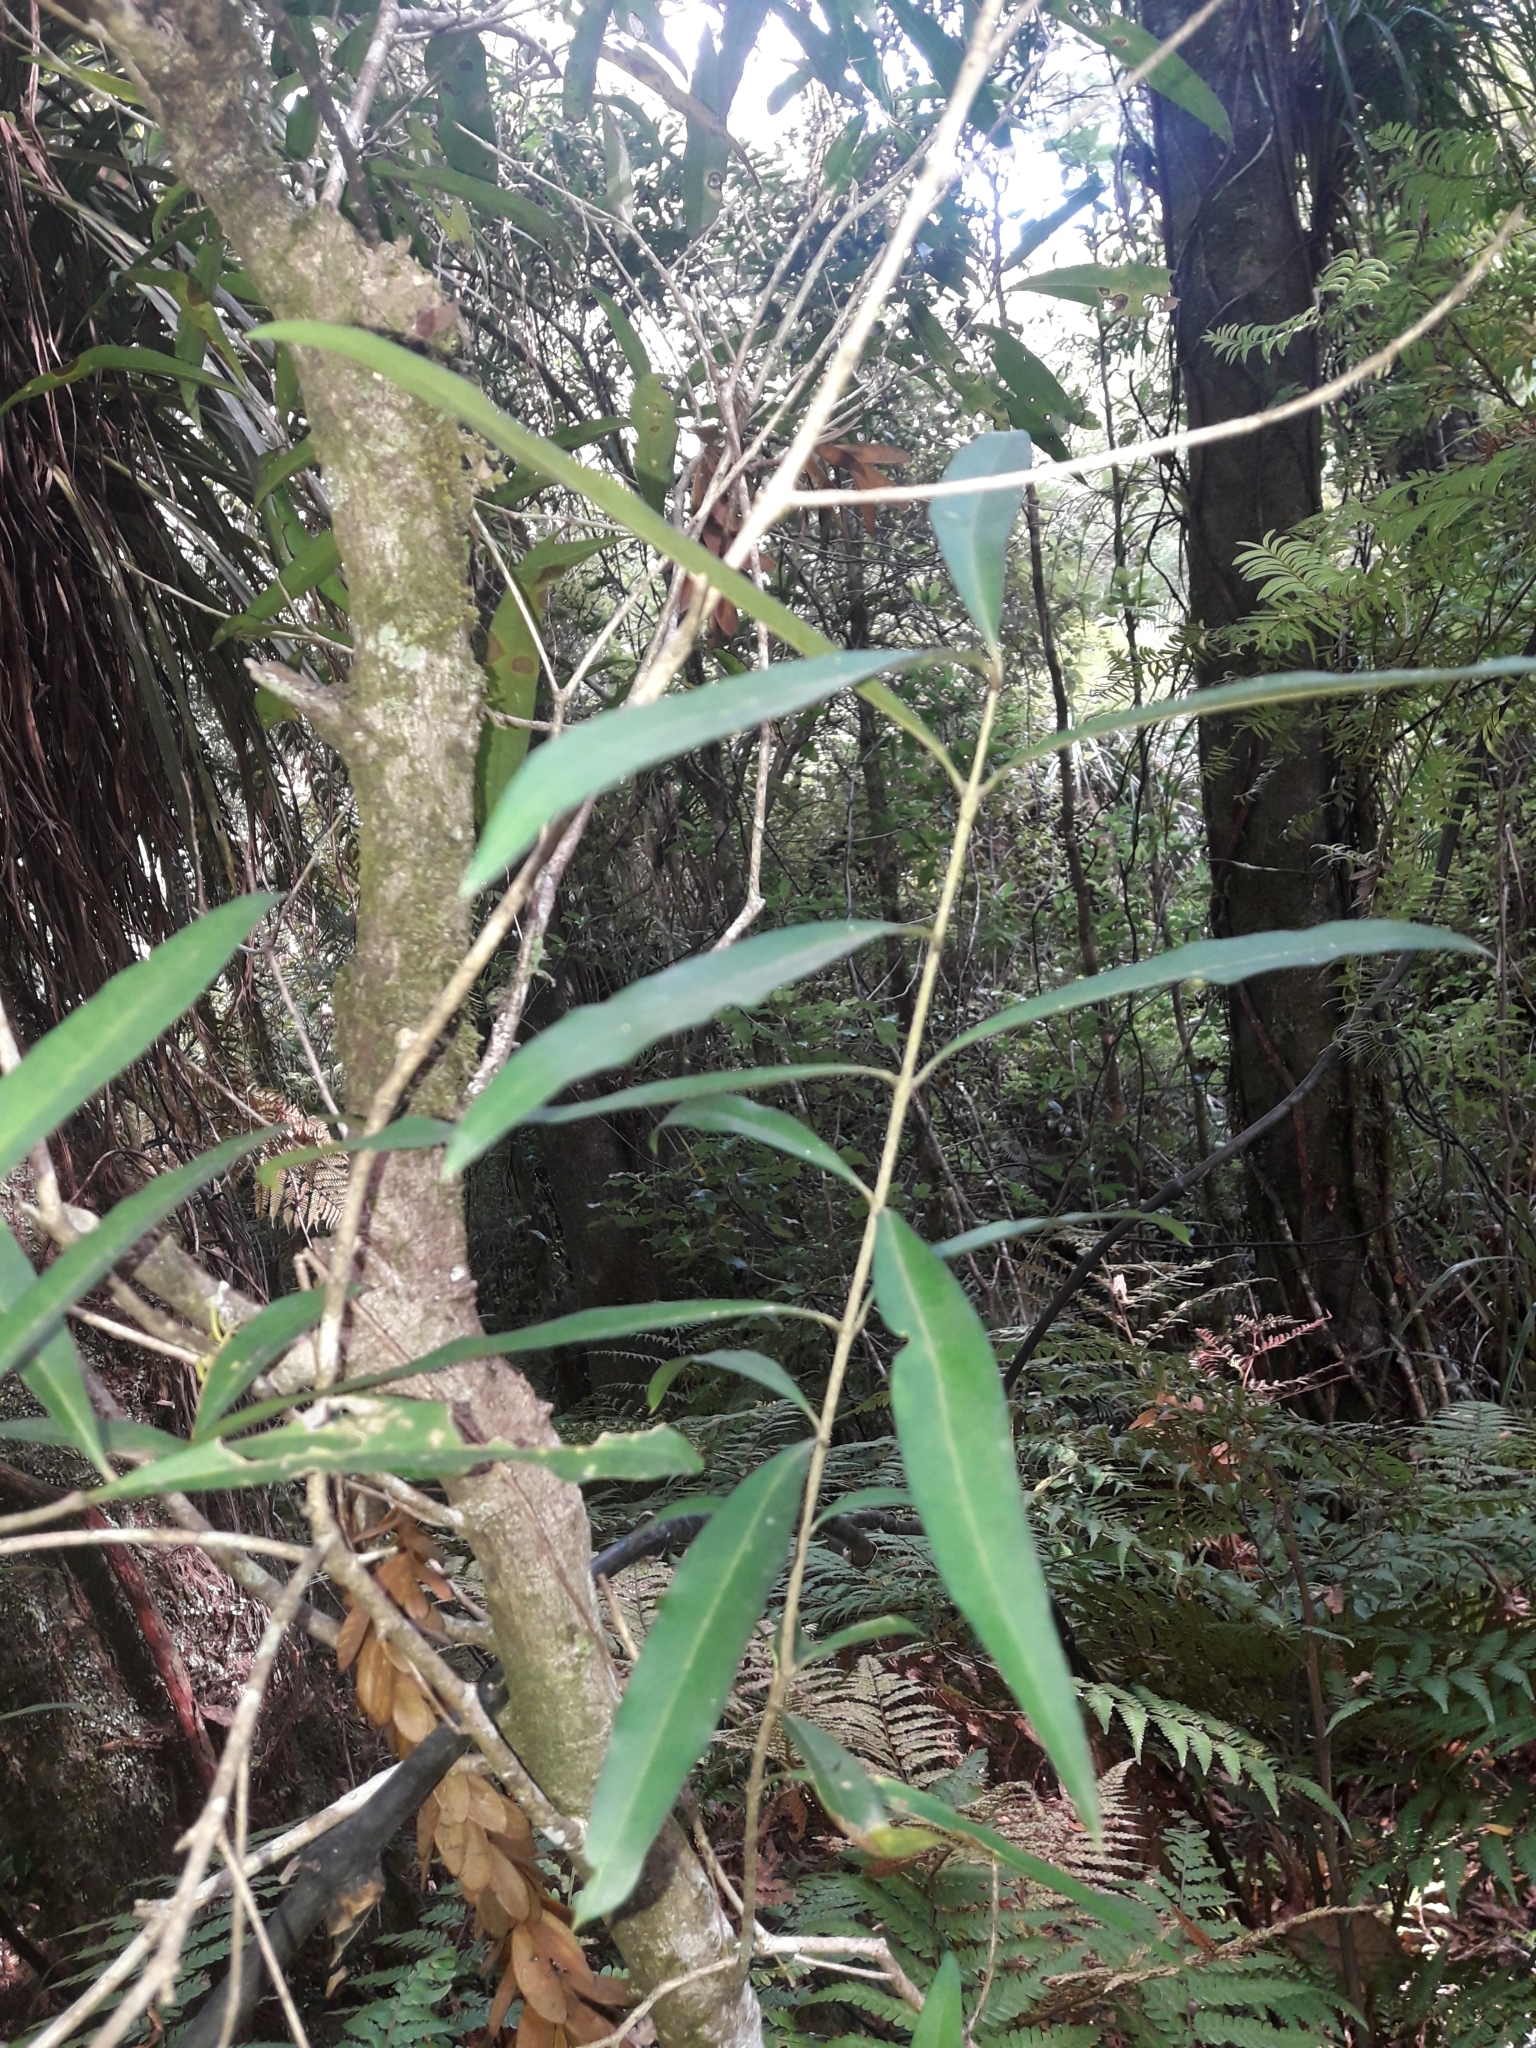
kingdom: Plantae
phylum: Tracheophyta
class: Magnoliopsida
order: Lamiales
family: Oleaceae
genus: Nestegis
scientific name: Nestegis lanceolata
